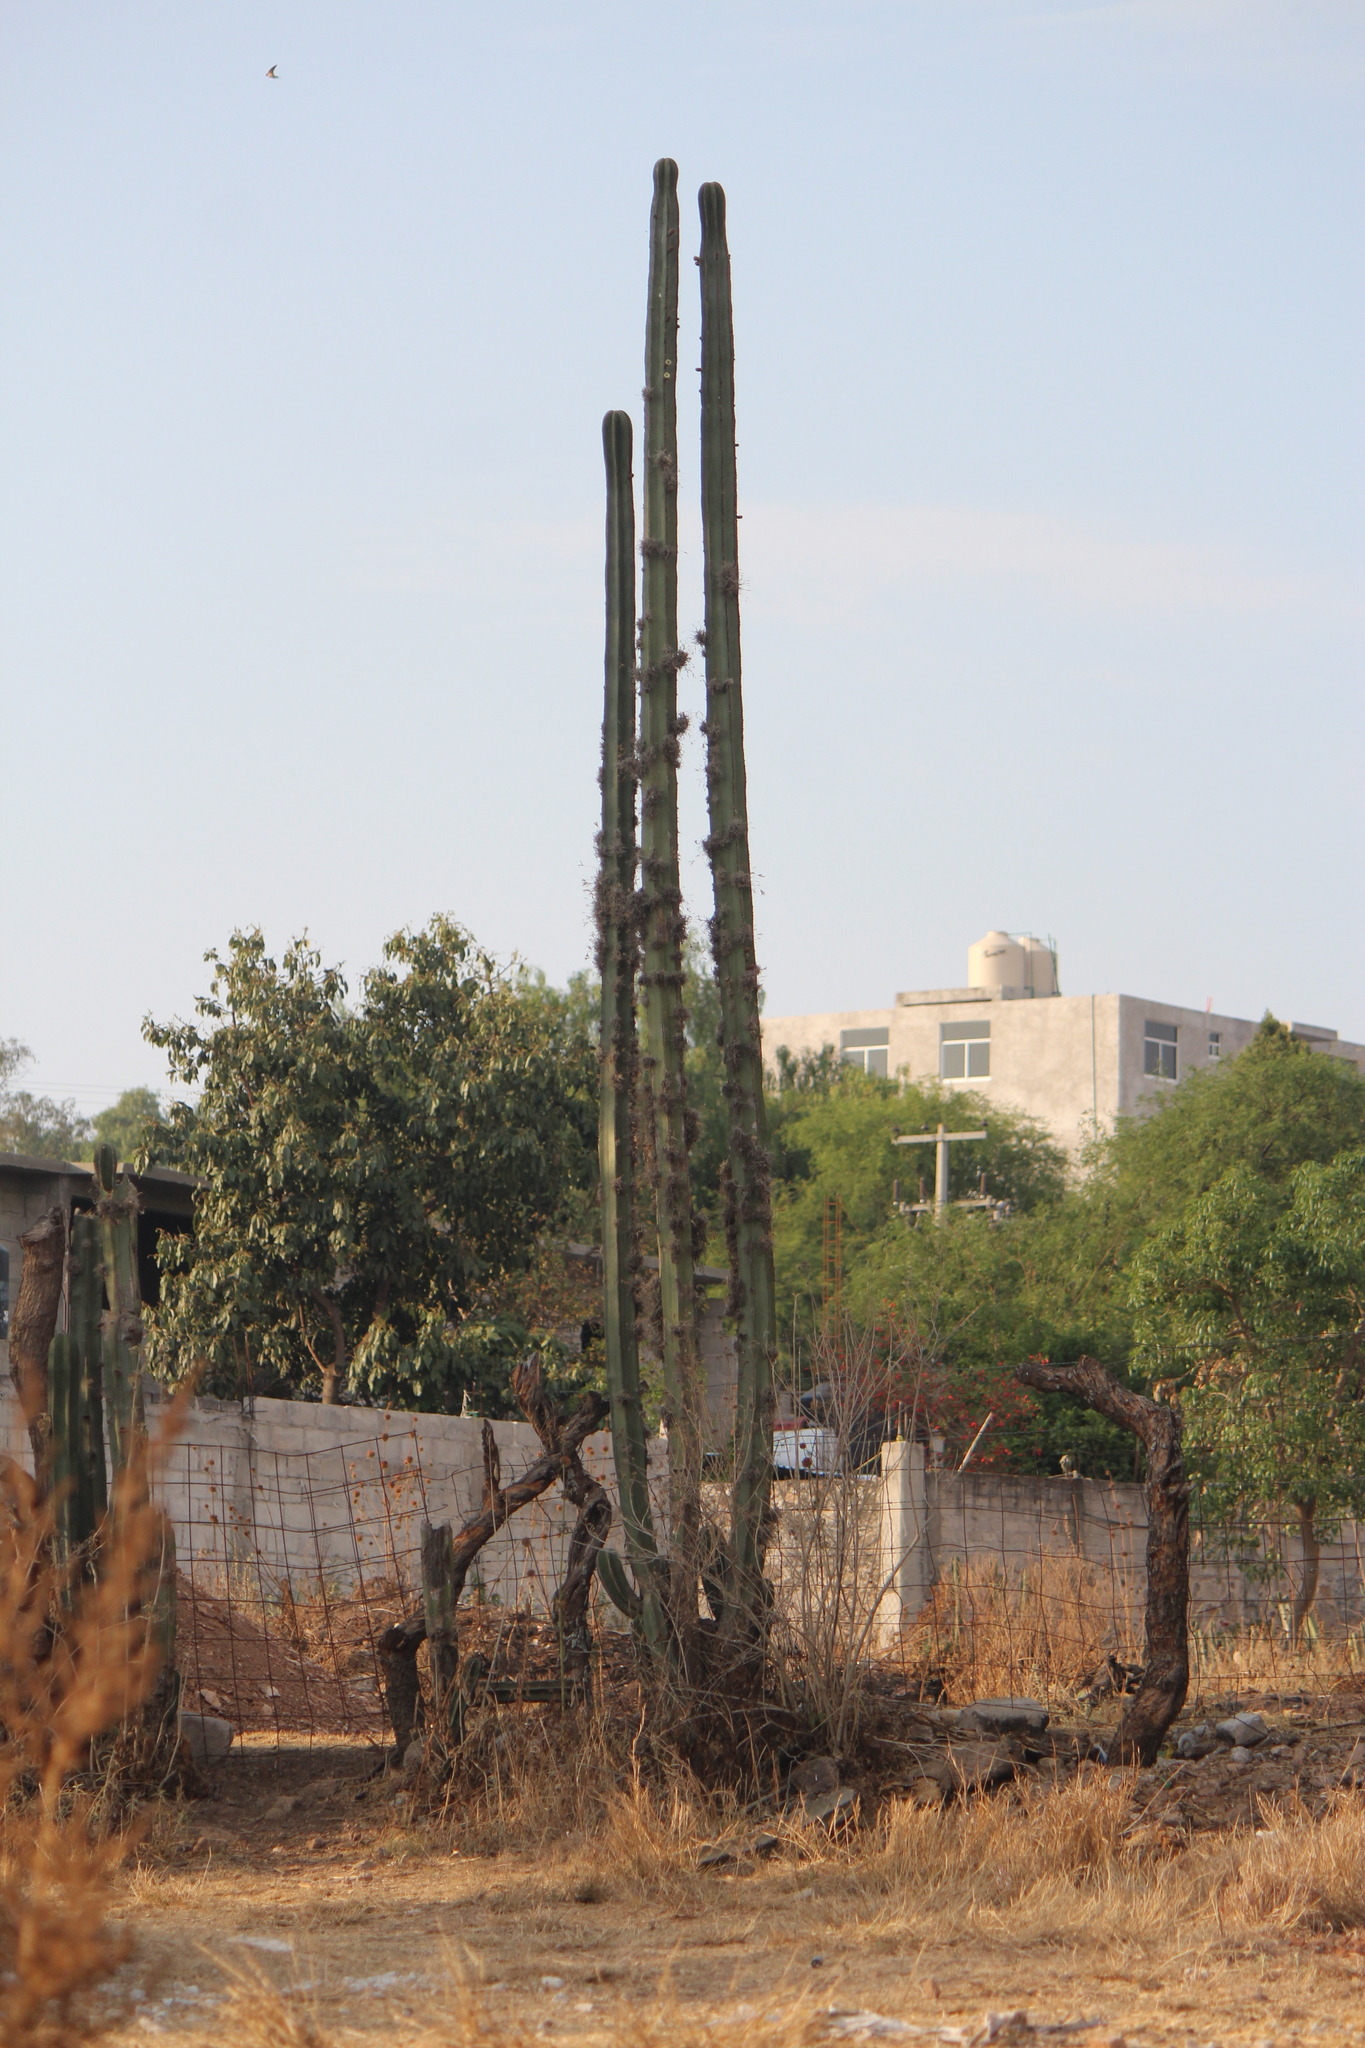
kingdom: Plantae
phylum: Tracheophyta
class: Magnoliopsida
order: Caryophyllales
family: Cactaceae
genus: Marginatocereus
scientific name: Marginatocereus marginatus
